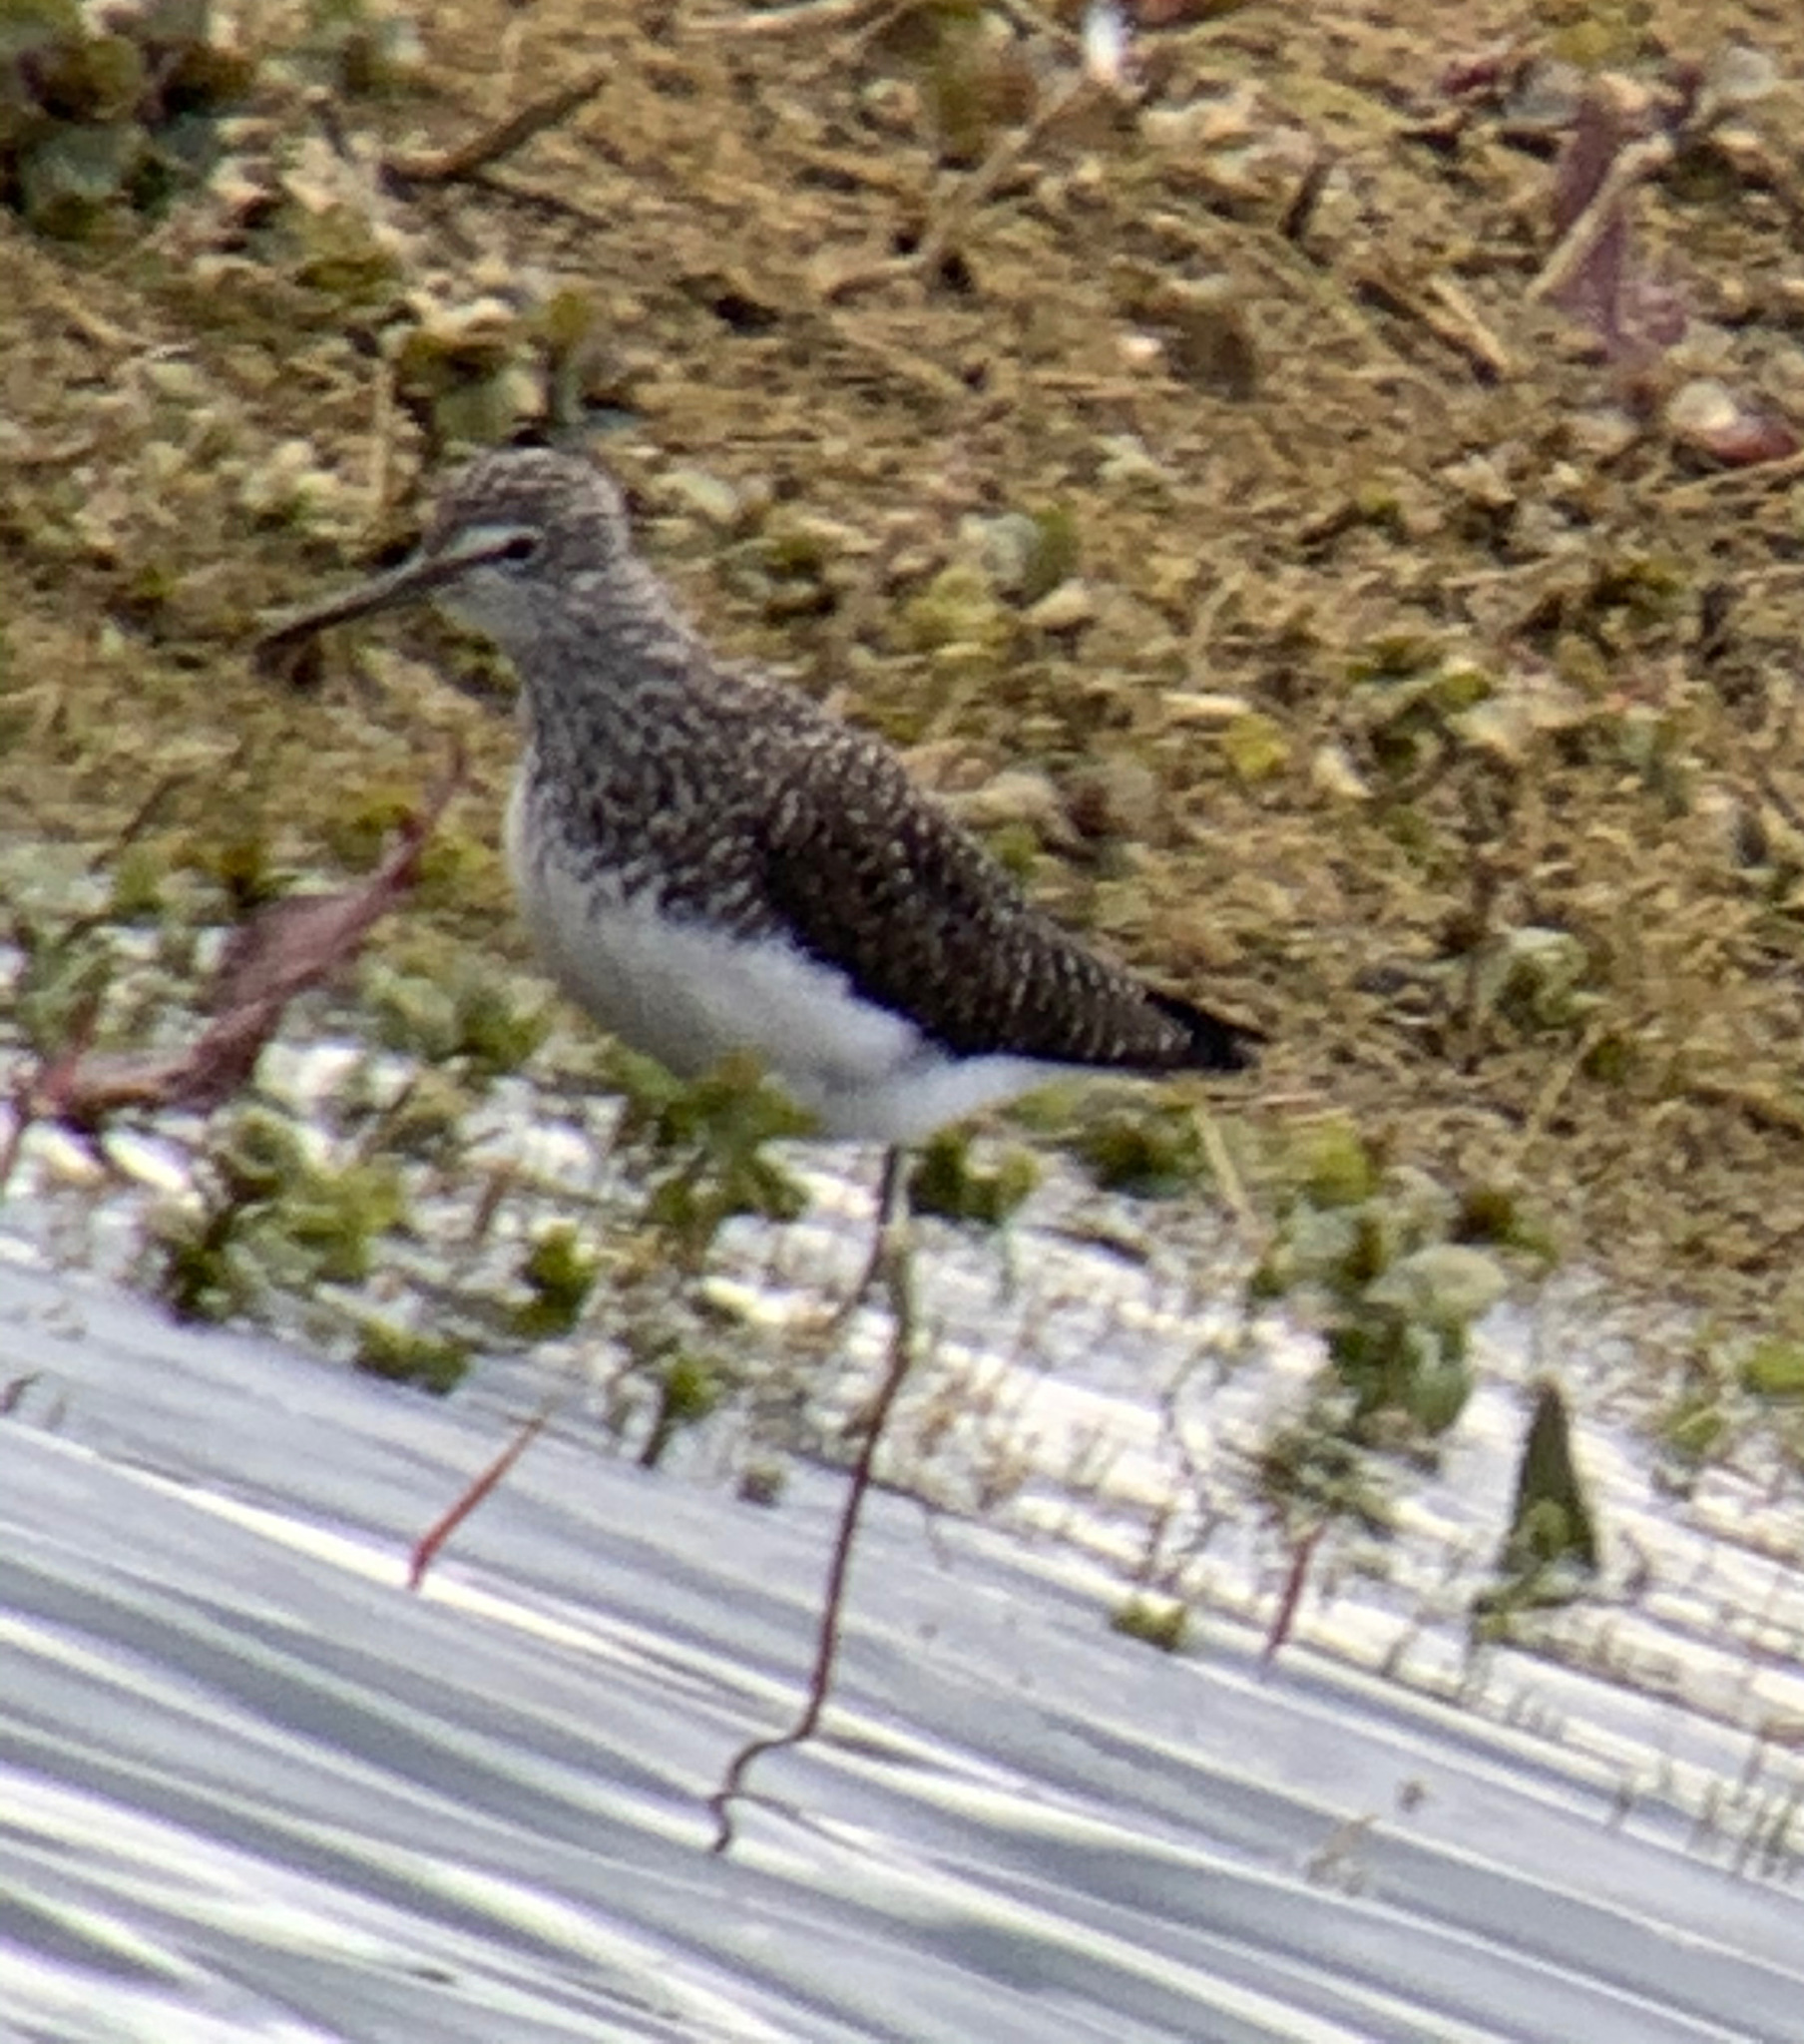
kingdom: Animalia
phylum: Chordata
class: Aves
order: Charadriiformes
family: Scolopacidae
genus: Tringa
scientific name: Tringa ochropus
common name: Green sandpiper
